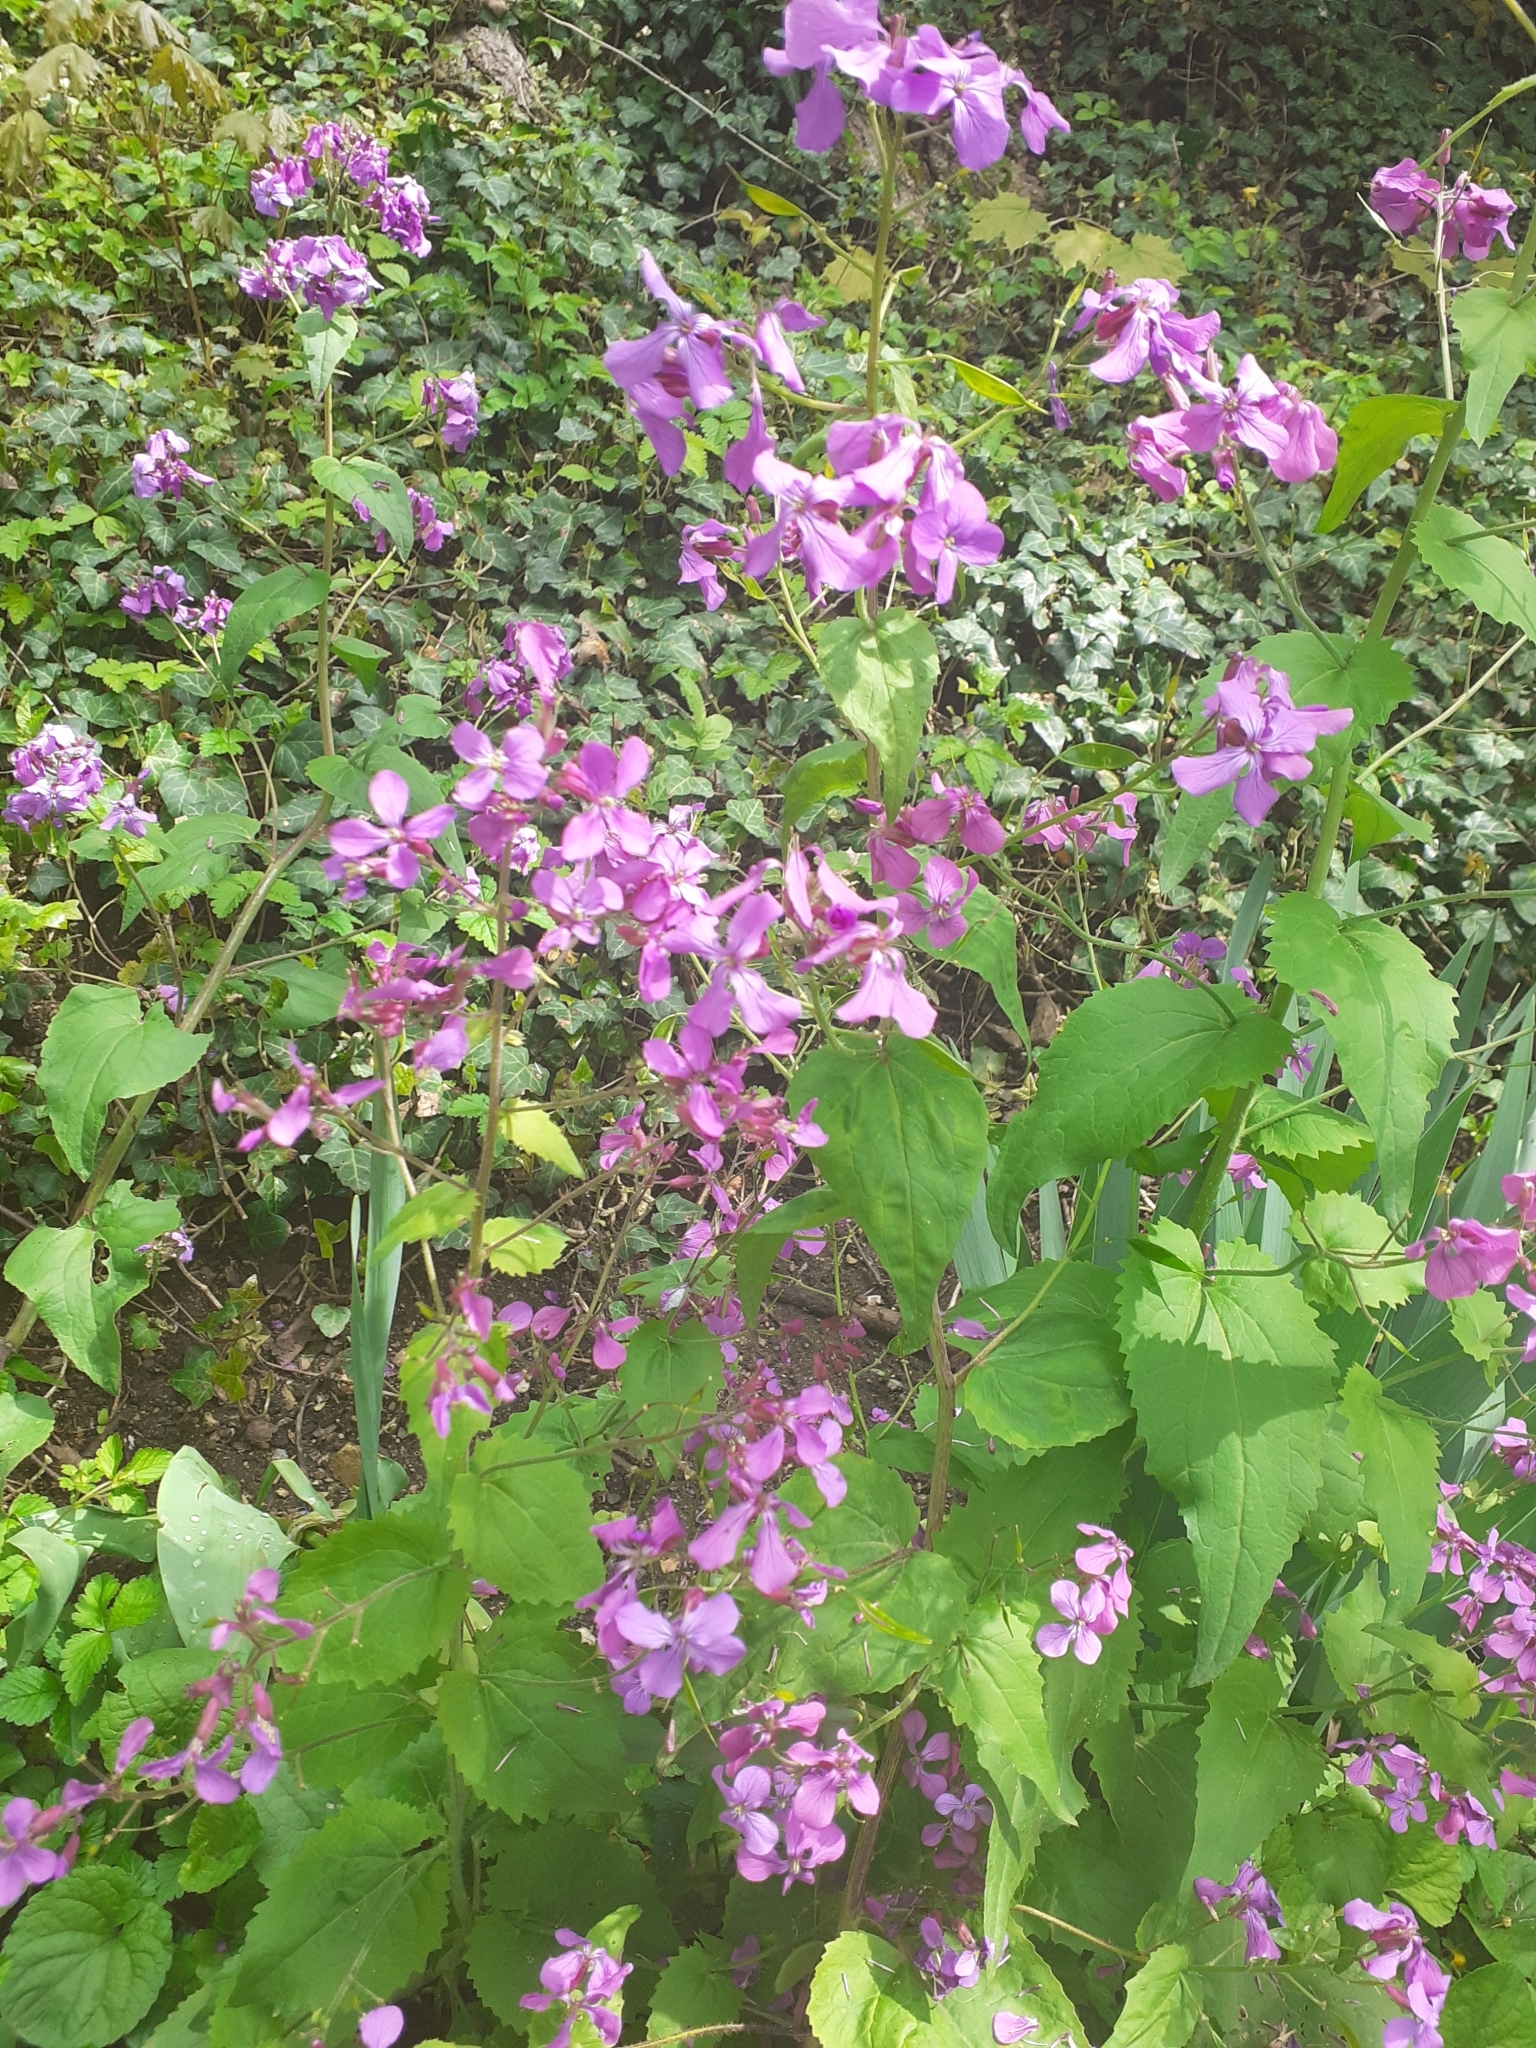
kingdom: Plantae
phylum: Tracheophyta
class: Magnoliopsida
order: Brassicales
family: Brassicaceae
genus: Lunaria
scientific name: Lunaria annua
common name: Honesty
